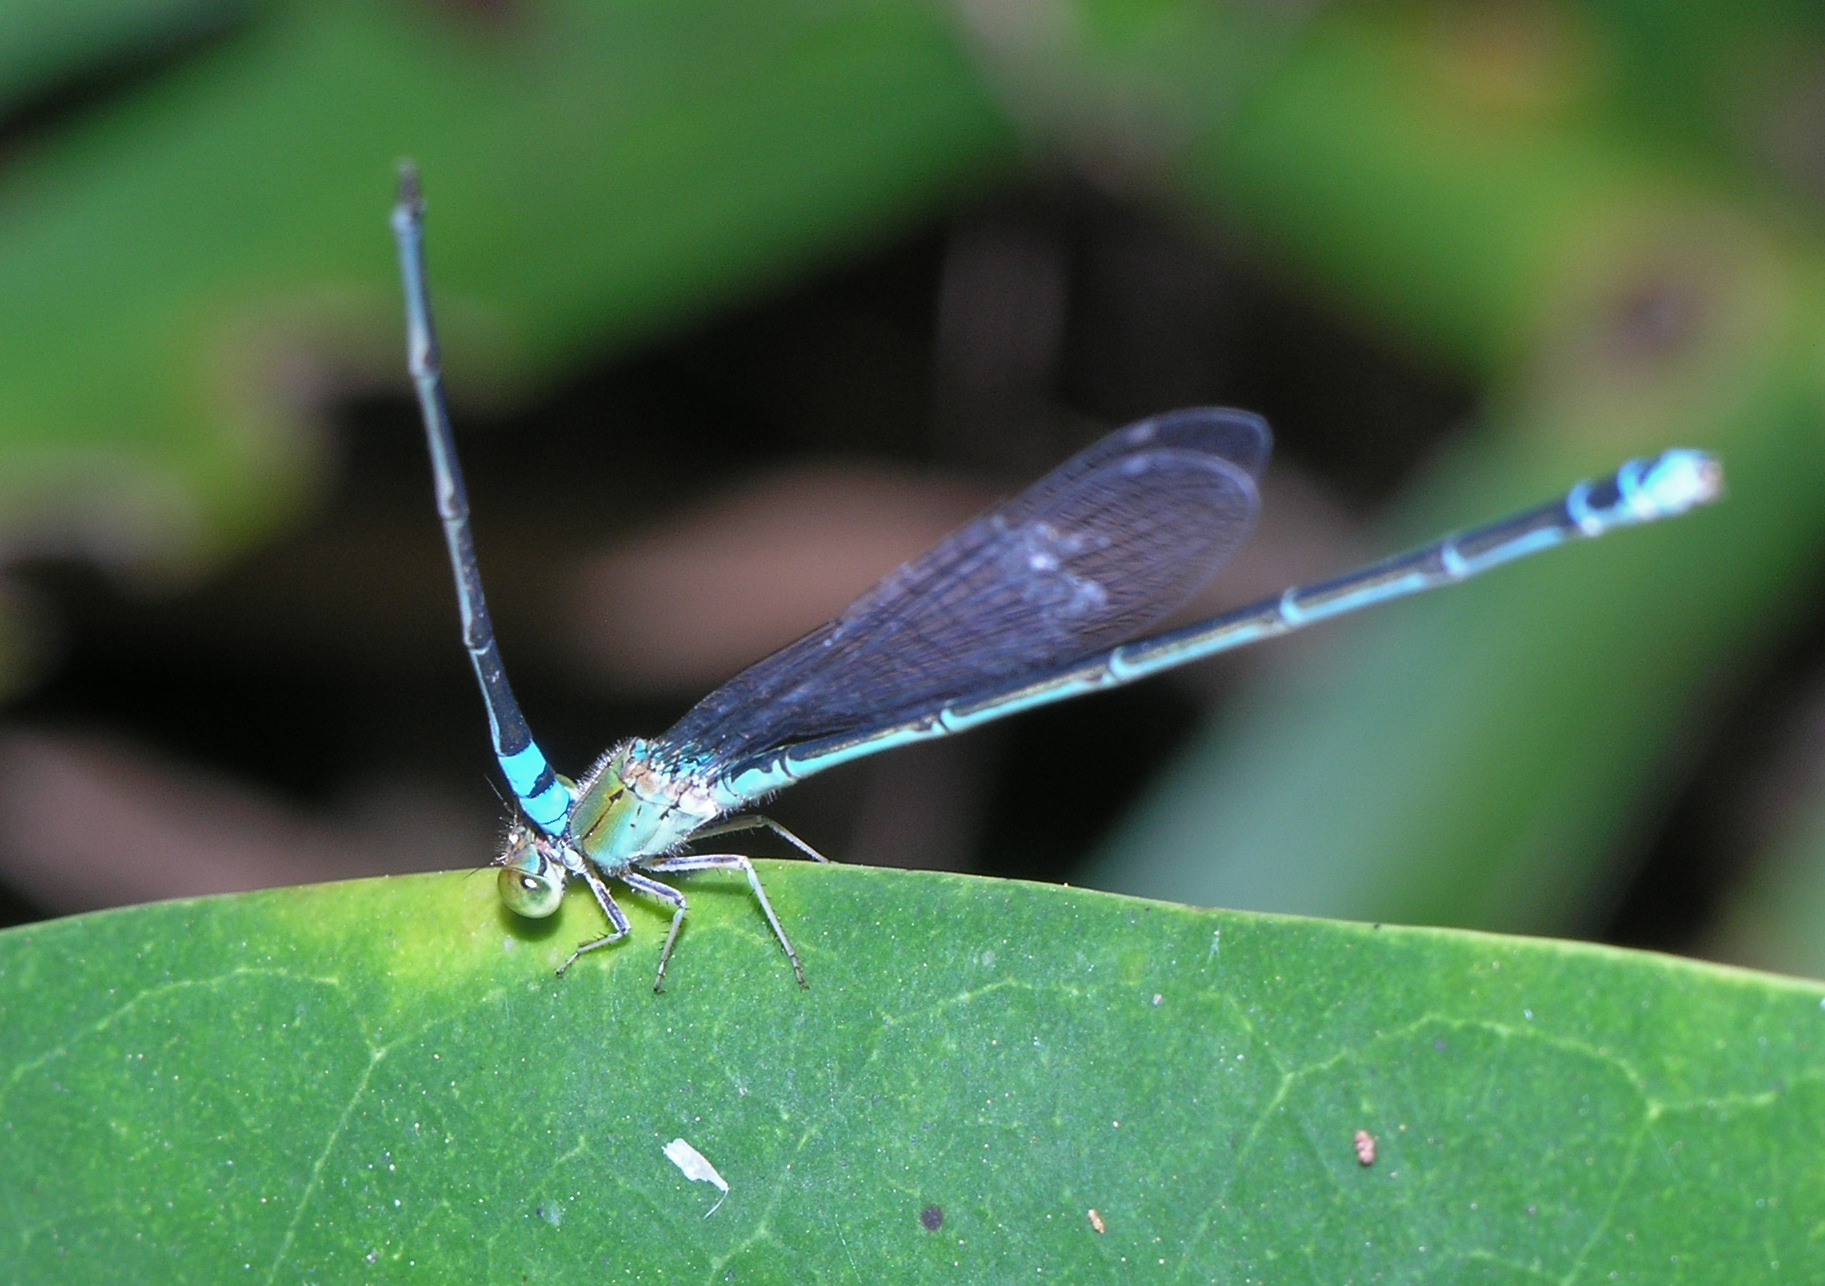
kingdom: Animalia
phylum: Arthropoda
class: Insecta
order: Odonata
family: Coenagrionidae
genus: Pseudagrion
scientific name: Pseudagrion rubriceps
